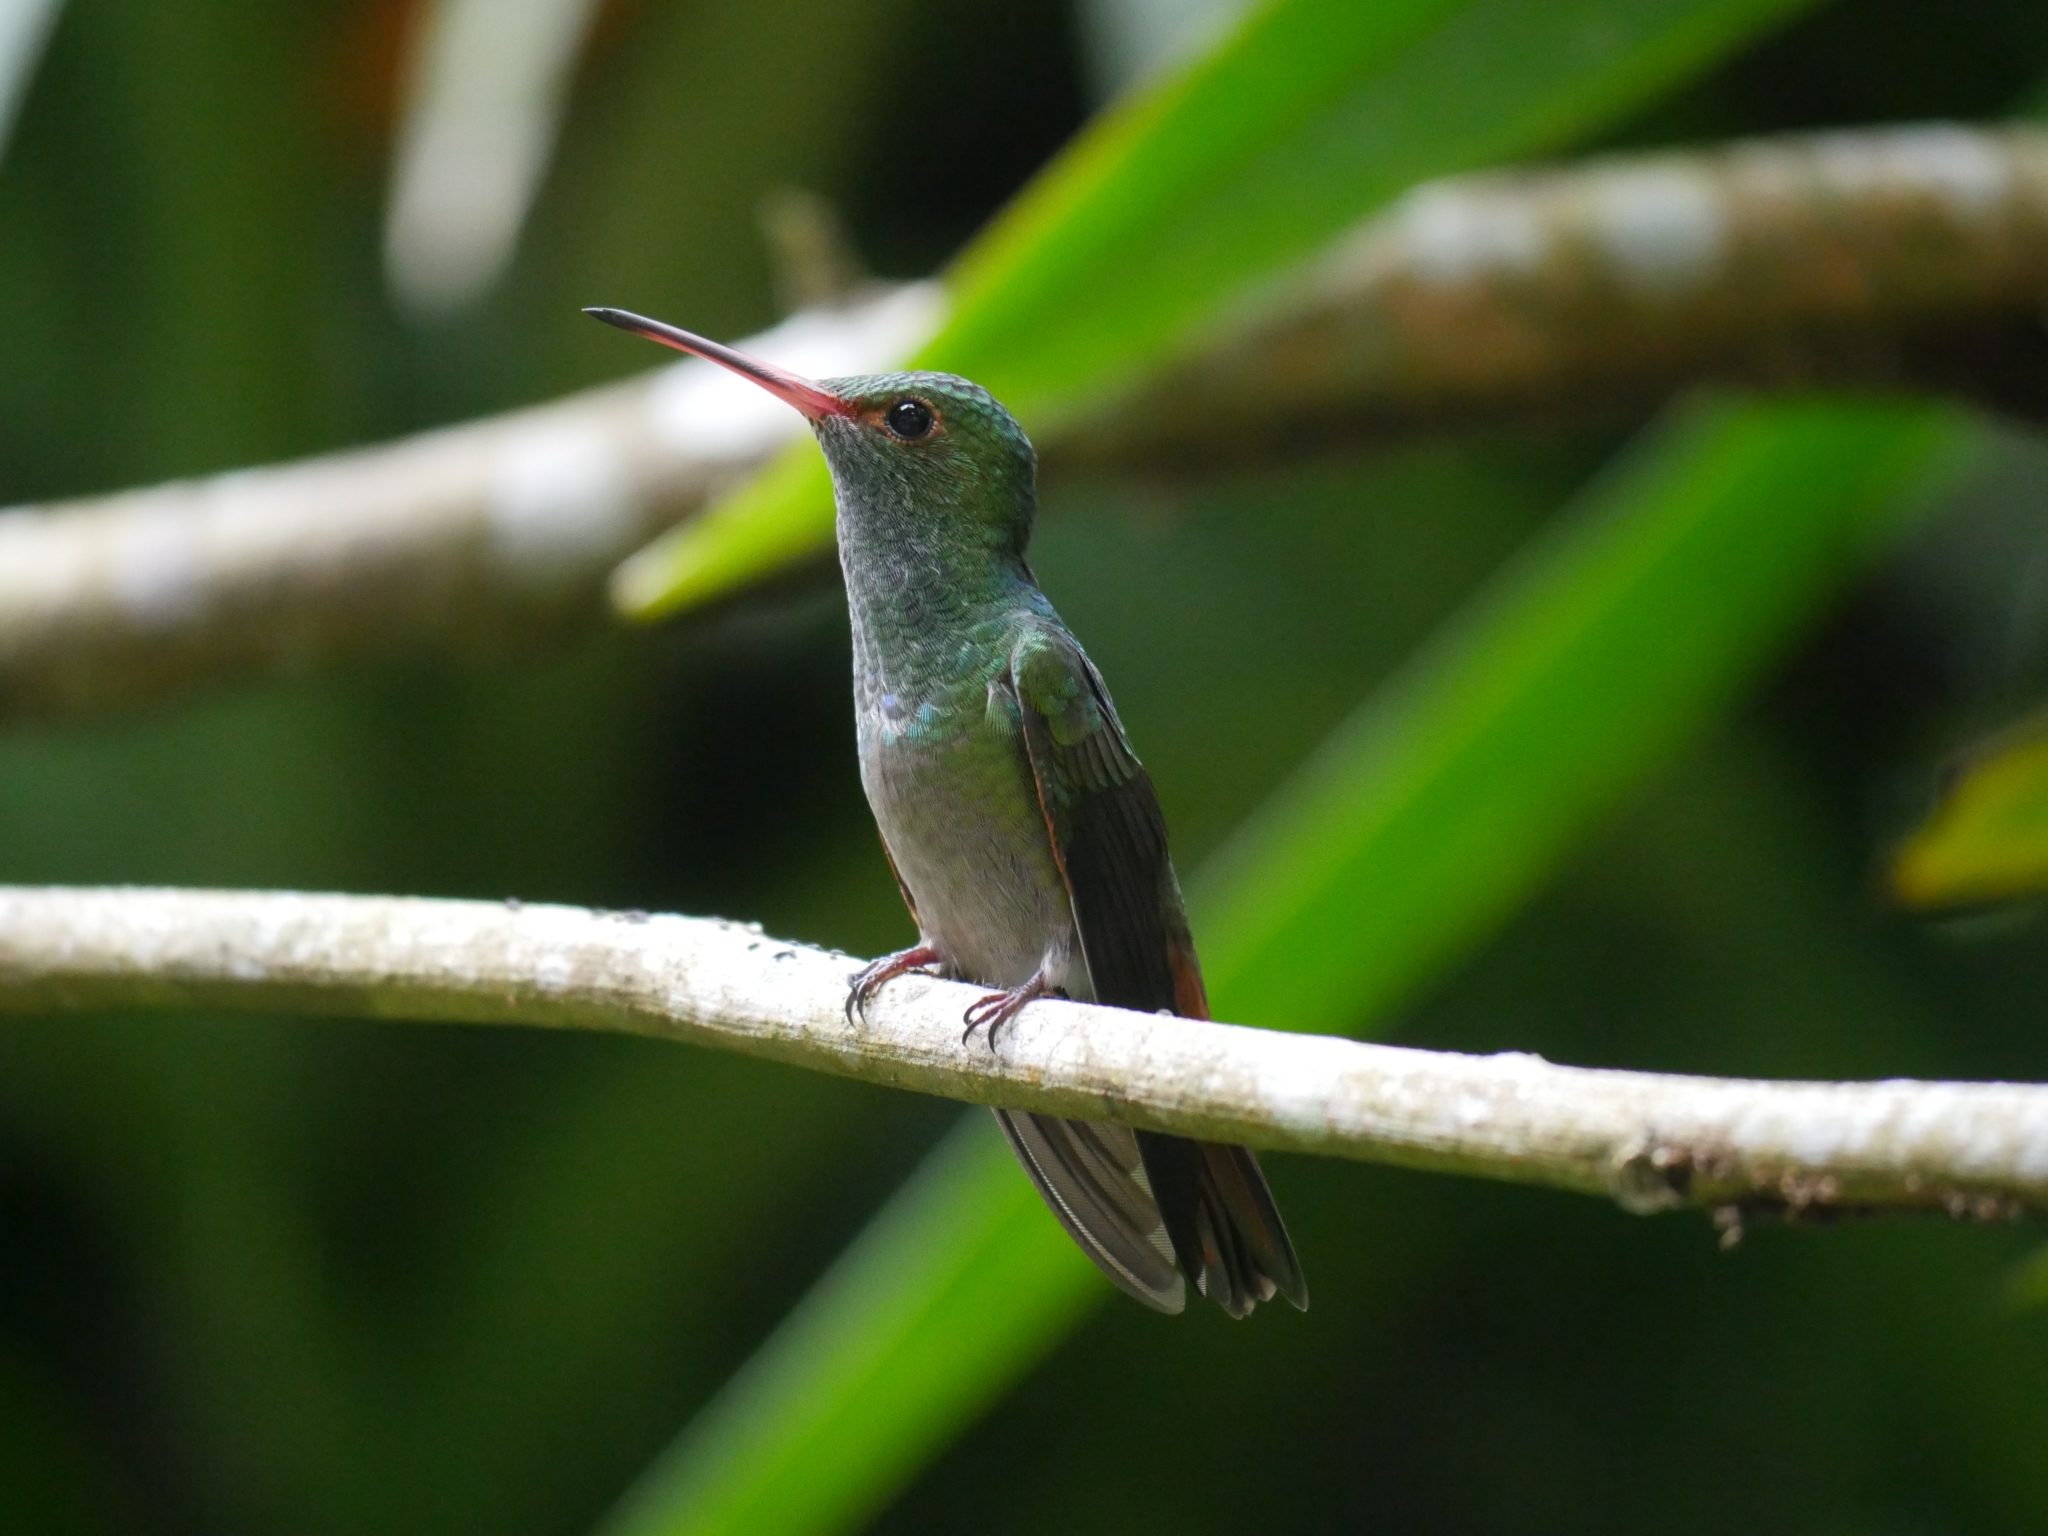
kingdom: Animalia
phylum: Chordata
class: Aves
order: Apodiformes
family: Trochilidae
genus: Amazilia
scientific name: Amazilia tzacatl
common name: Rufous-tailed hummingbird
